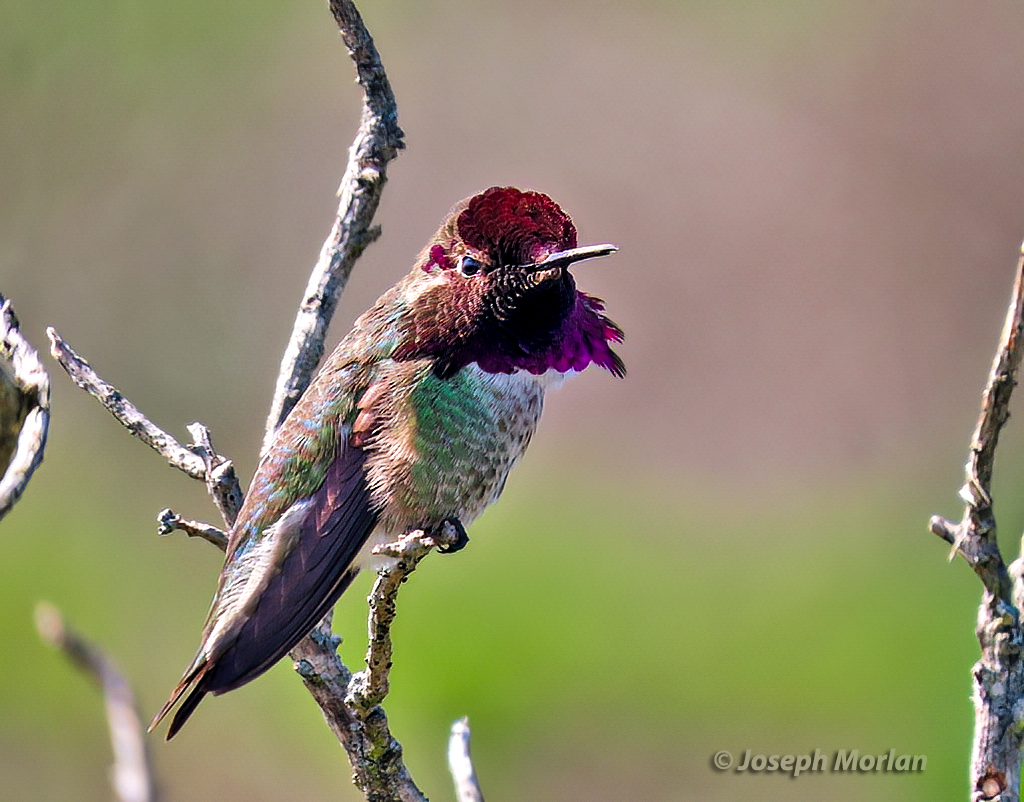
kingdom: Animalia
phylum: Chordata
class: Aves
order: Apodiformes
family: Trochilidae
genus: Calypte
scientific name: Calypte anna
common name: Anna's hummingbird
